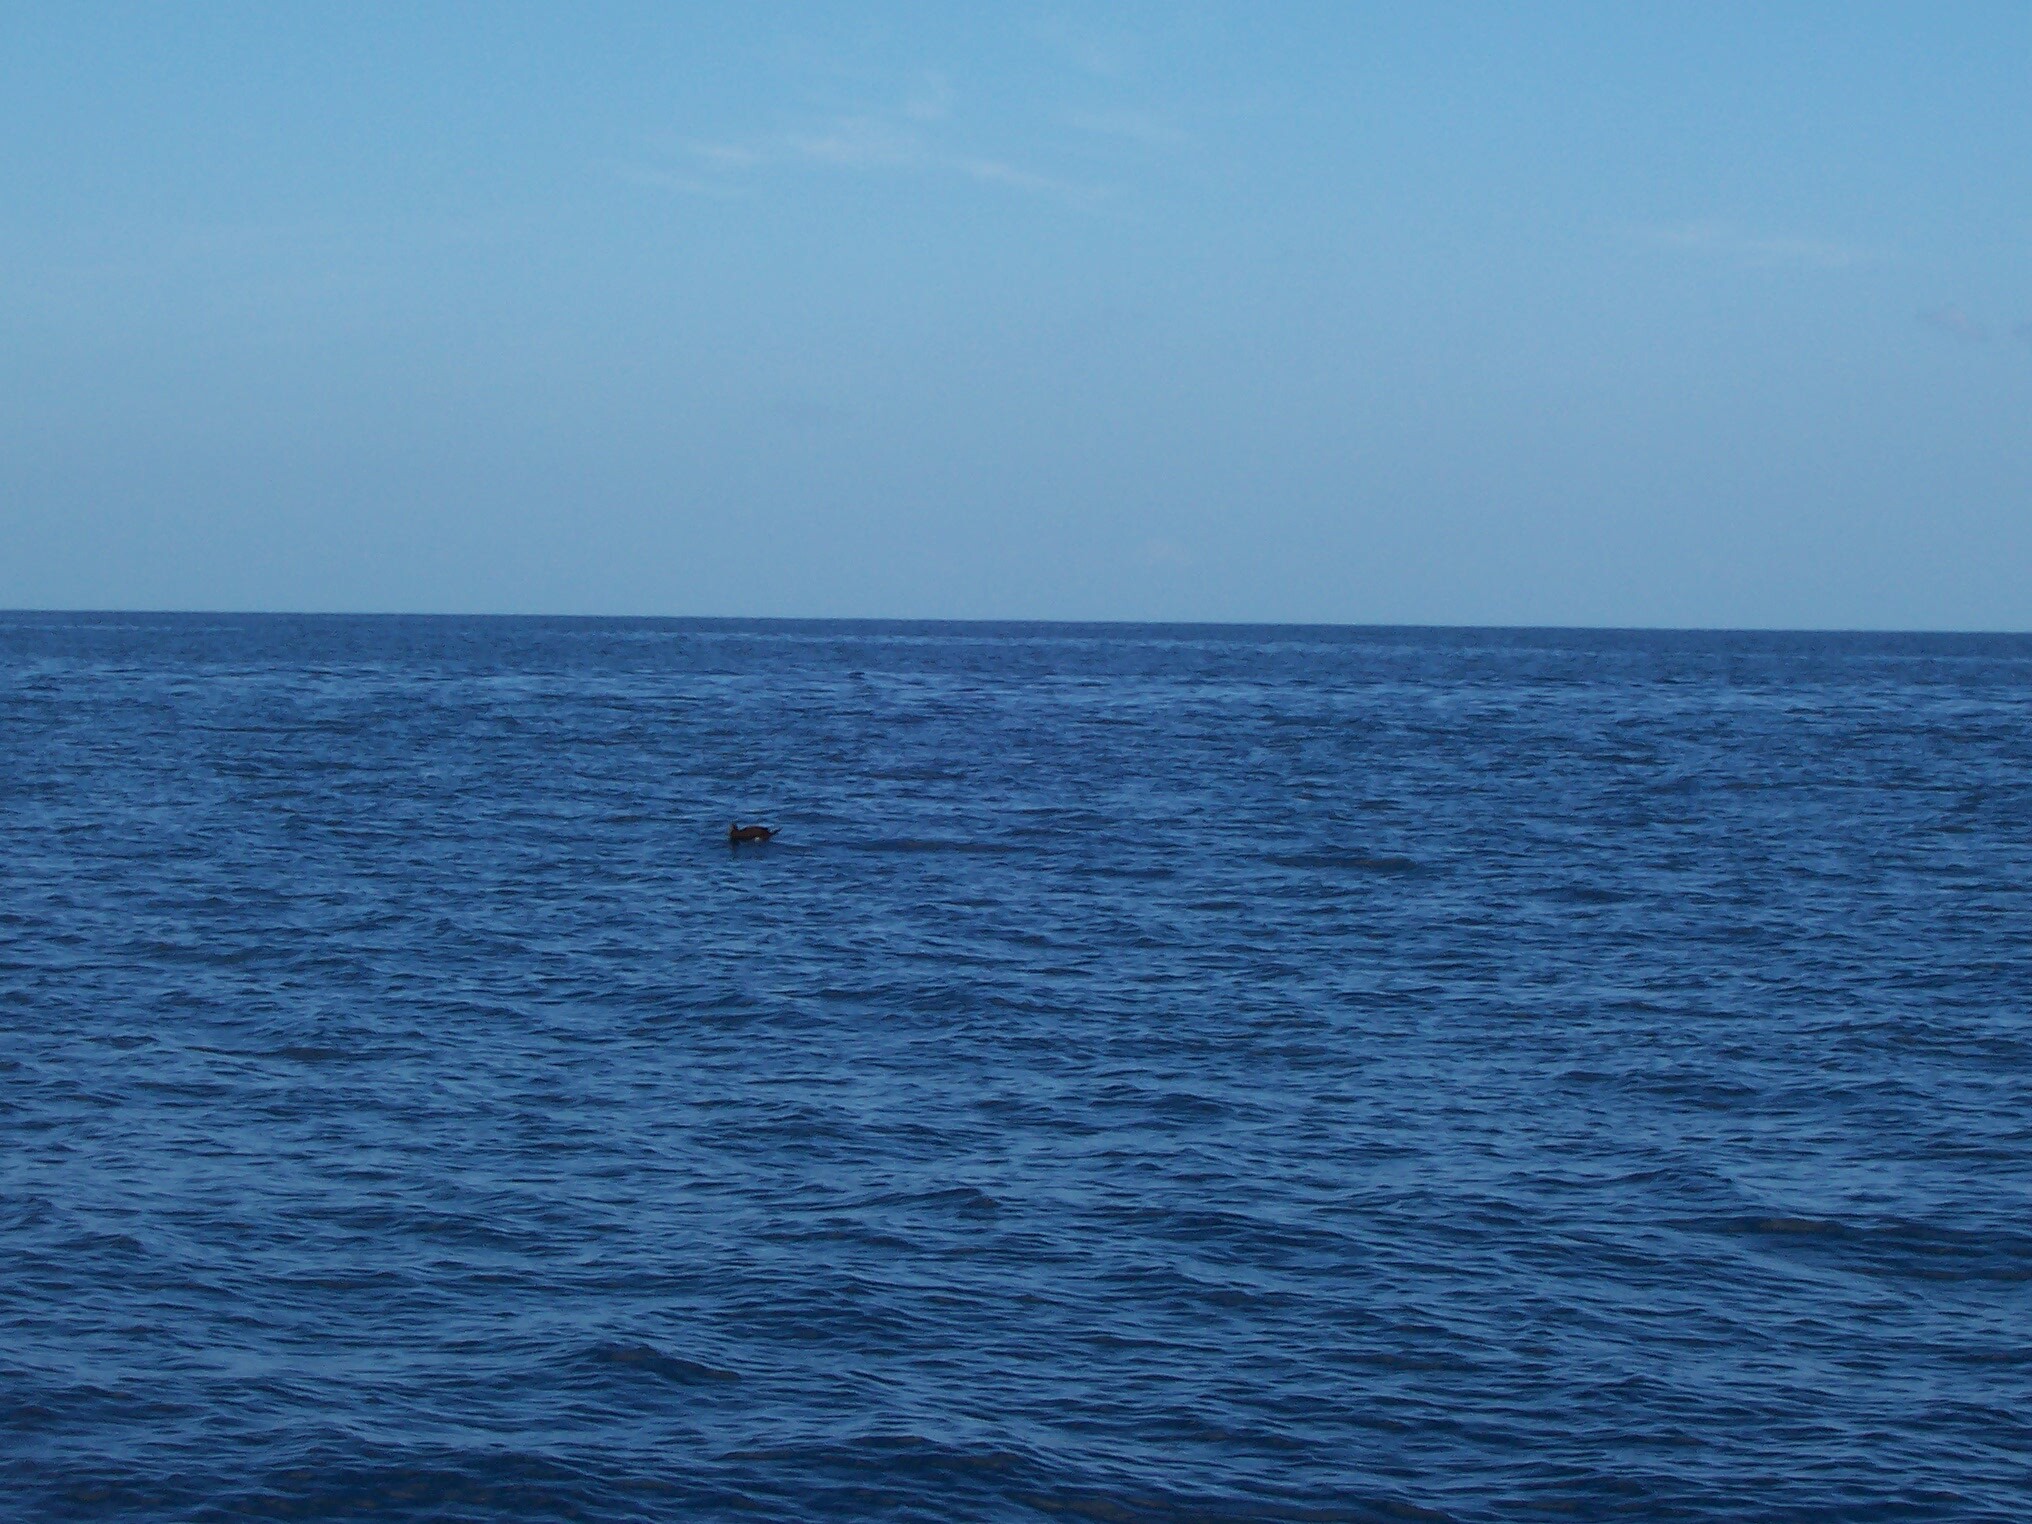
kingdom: Animalia
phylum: Chordata
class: Aves
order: Suliformes
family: Sulidae
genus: Sula
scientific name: Sula leucogaster
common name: Brown booby
